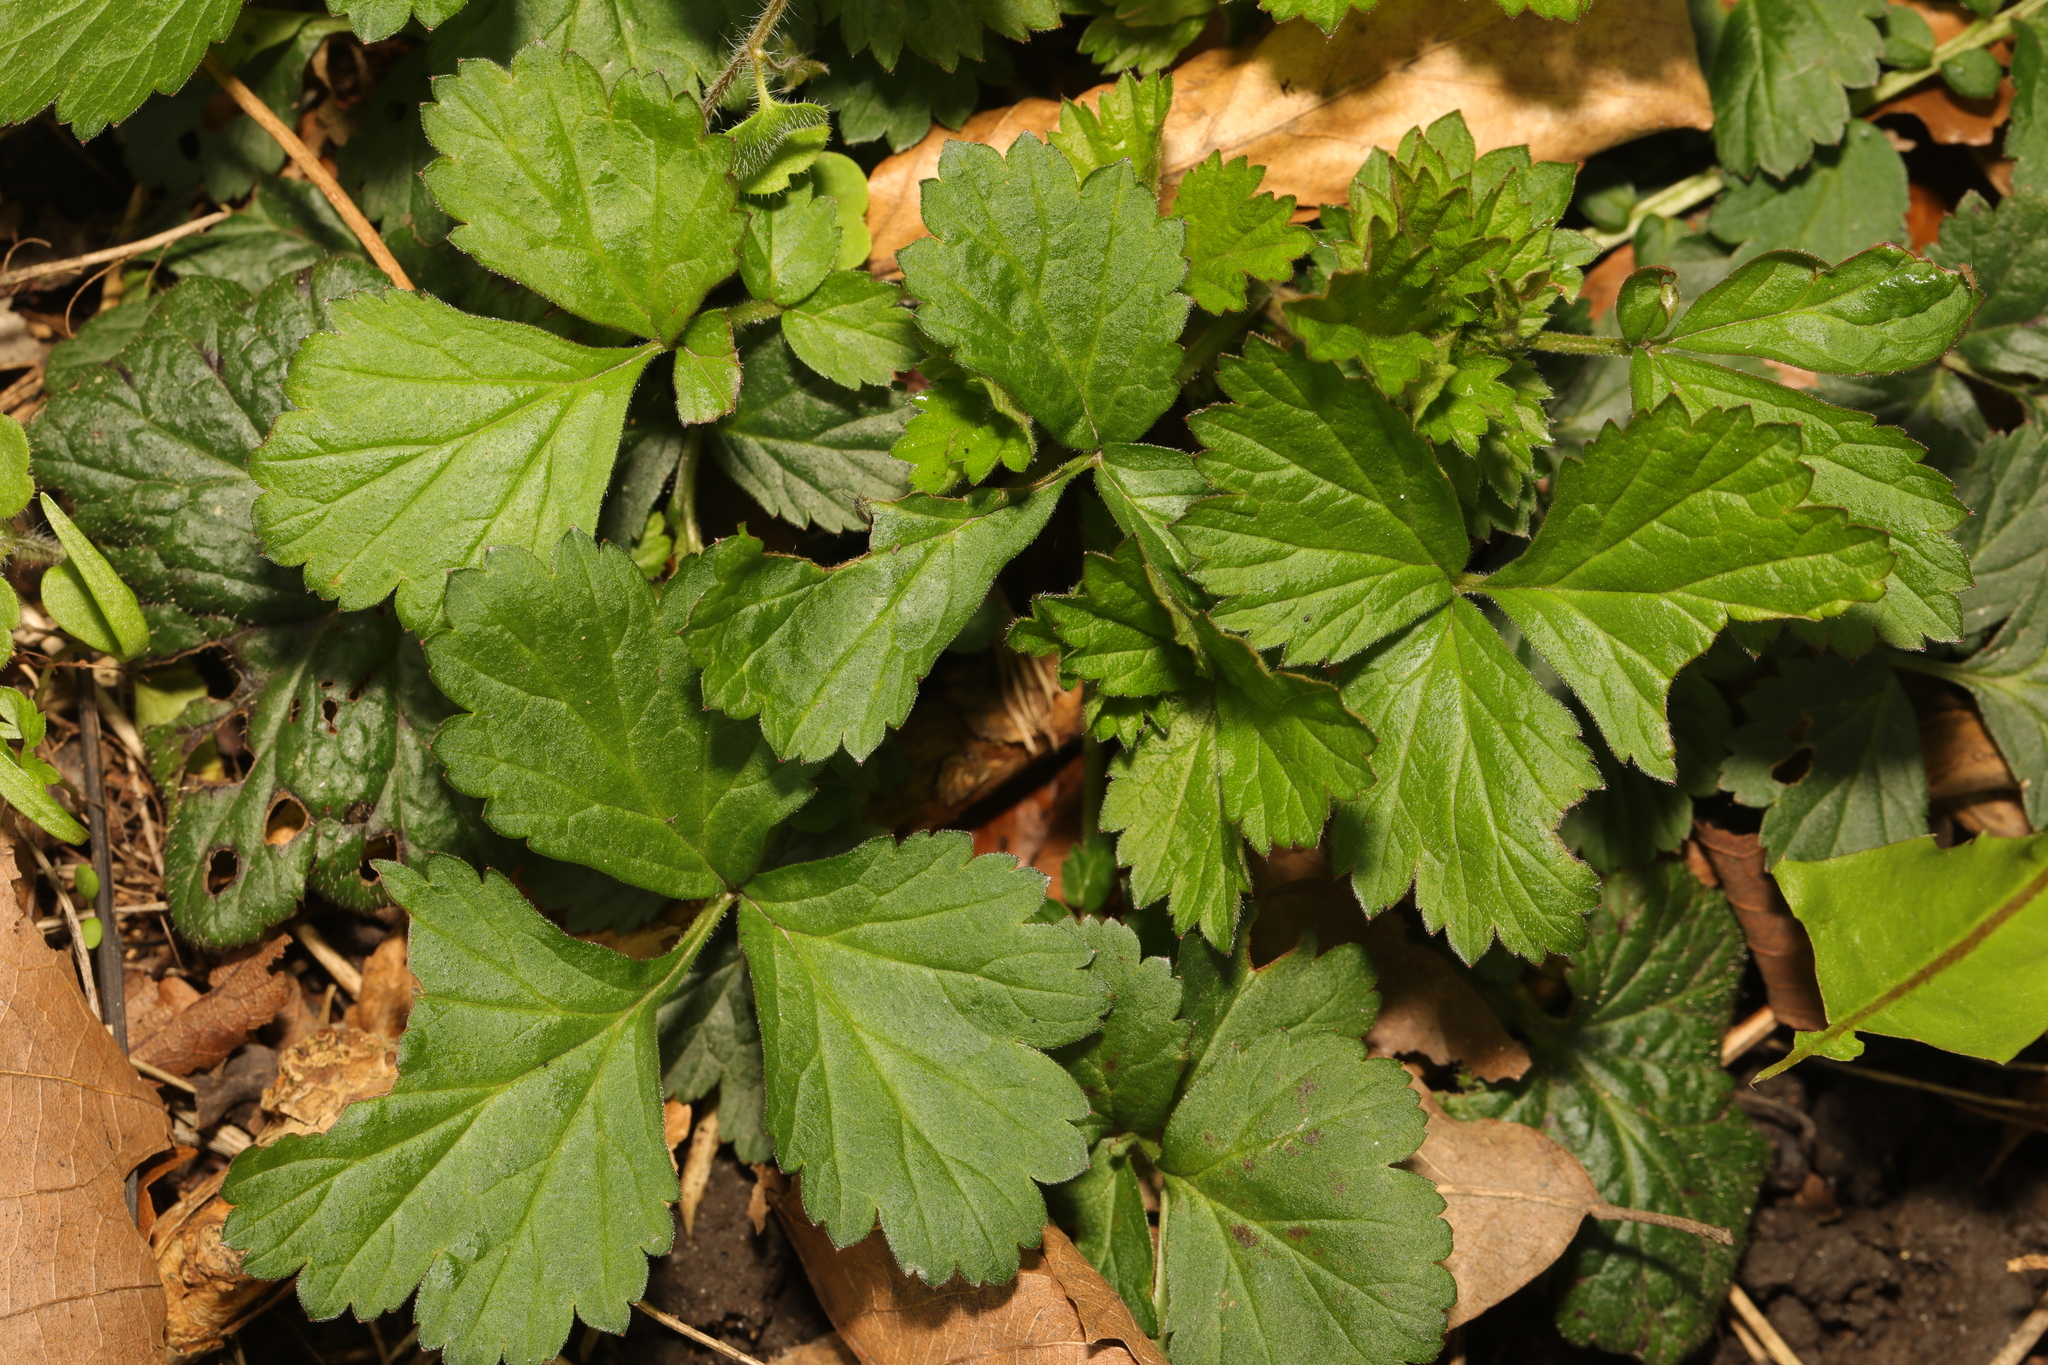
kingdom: Plantae
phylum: Tracheophyta
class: Magnoliopsida
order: Rosales
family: Rosaceae
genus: Geum
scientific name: Geum urbanum
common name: Wood avens
